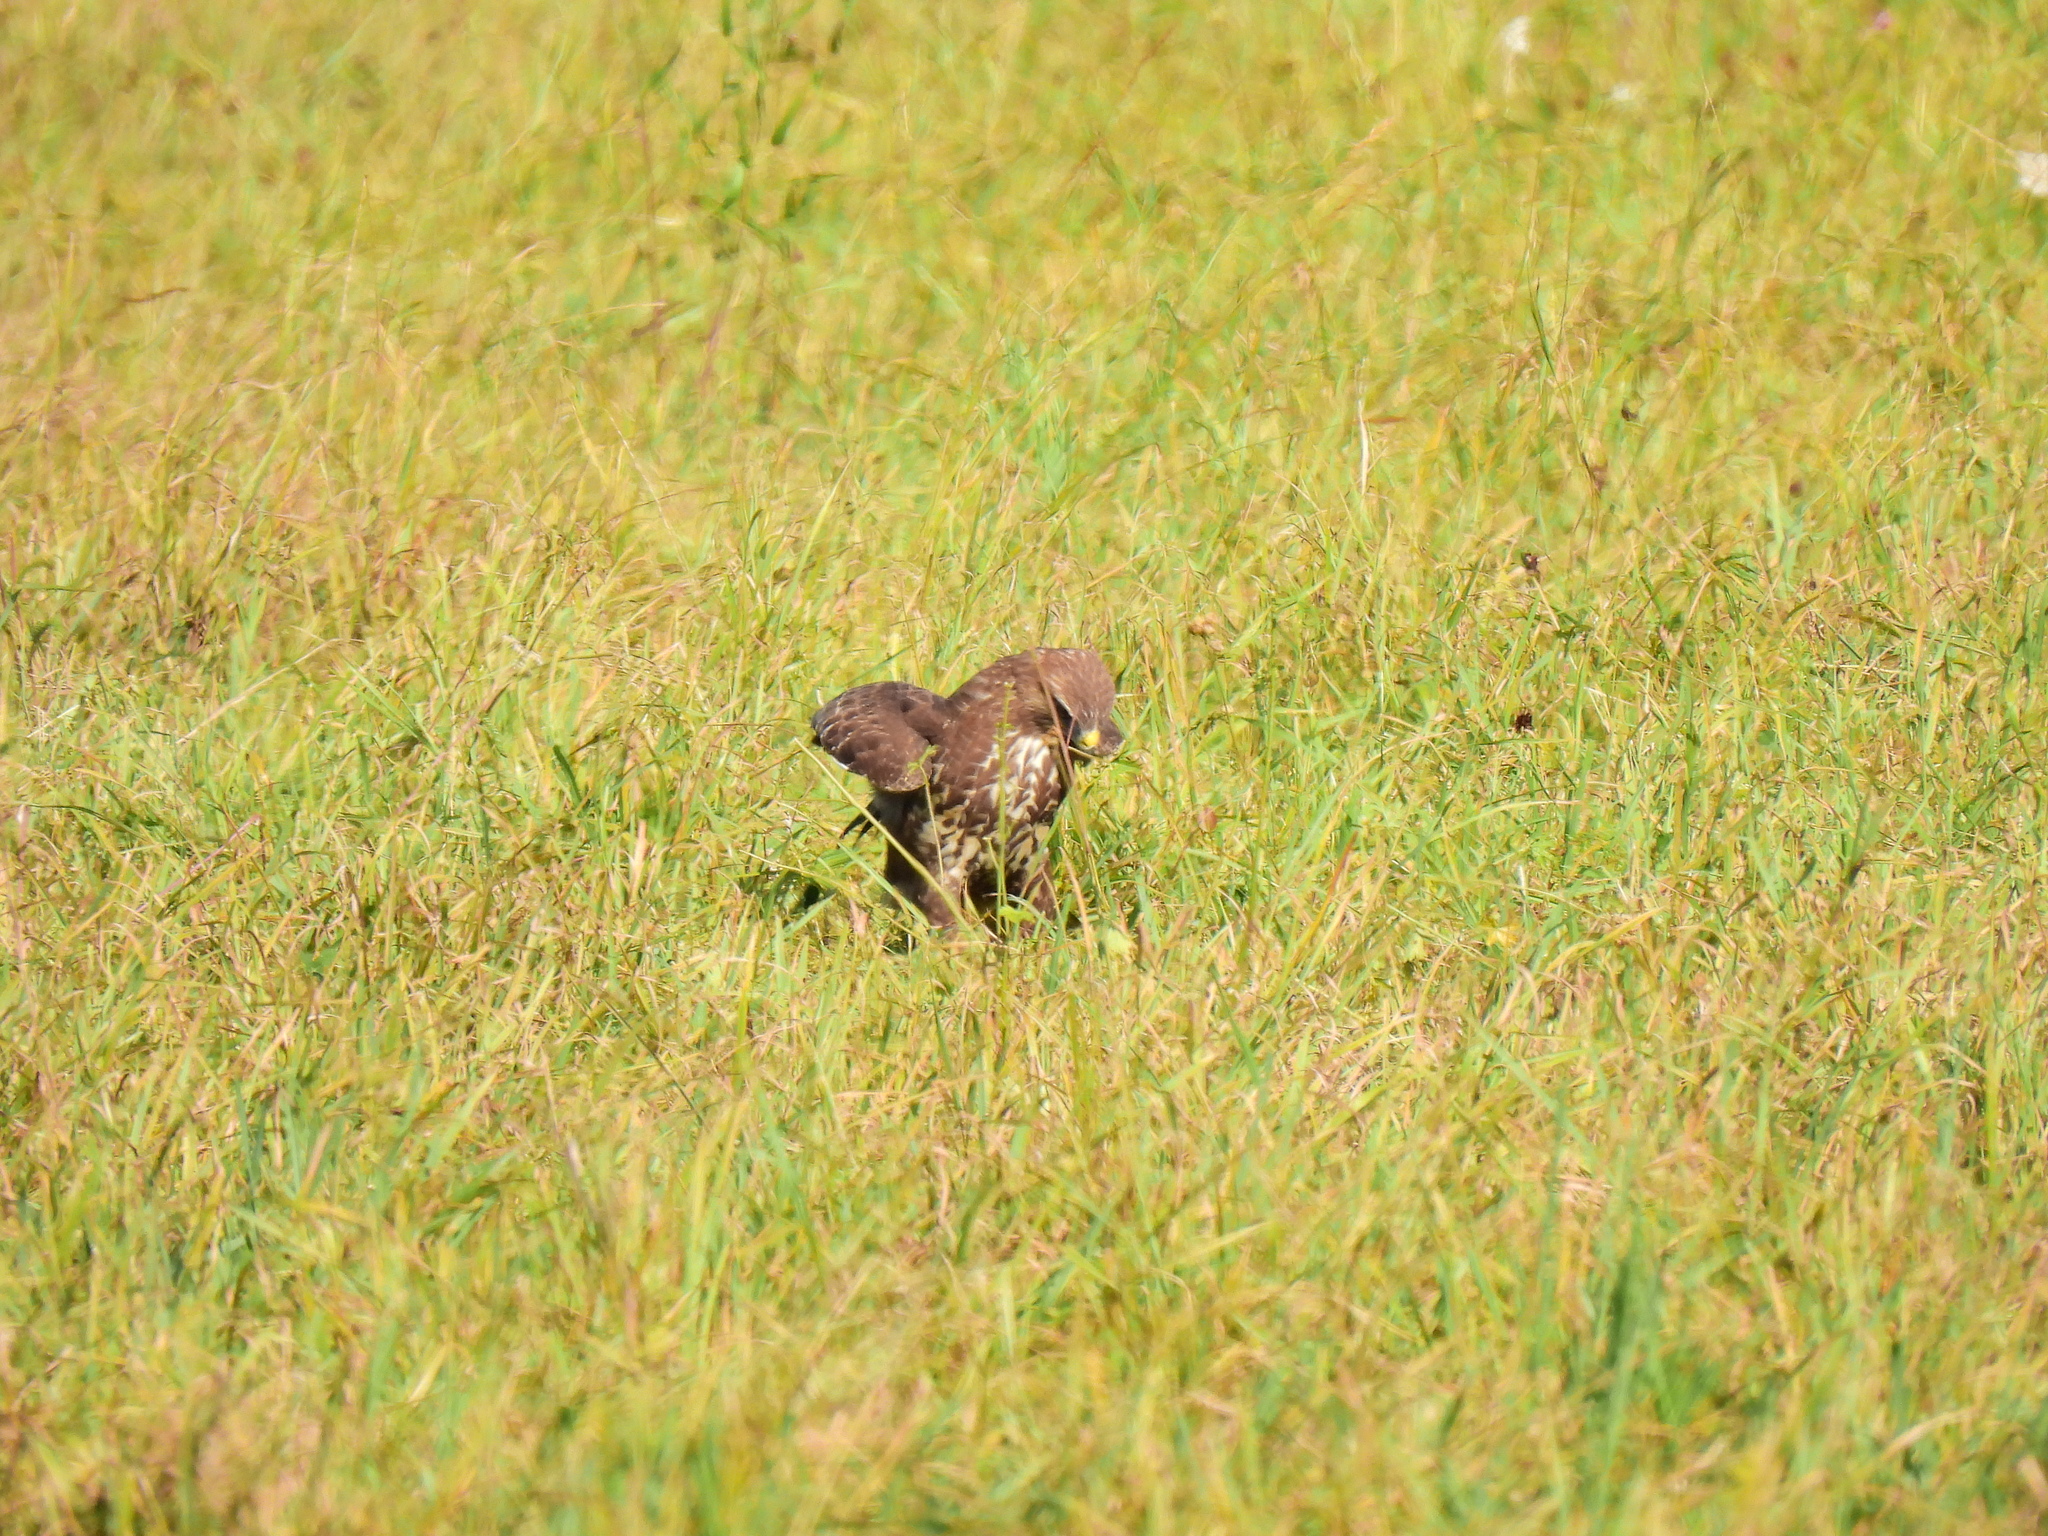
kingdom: Animalia
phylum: Chordata
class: Aves
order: Accipitriformes
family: Accipitridae
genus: Buteo
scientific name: Buteo buteo
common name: Common buzzard
